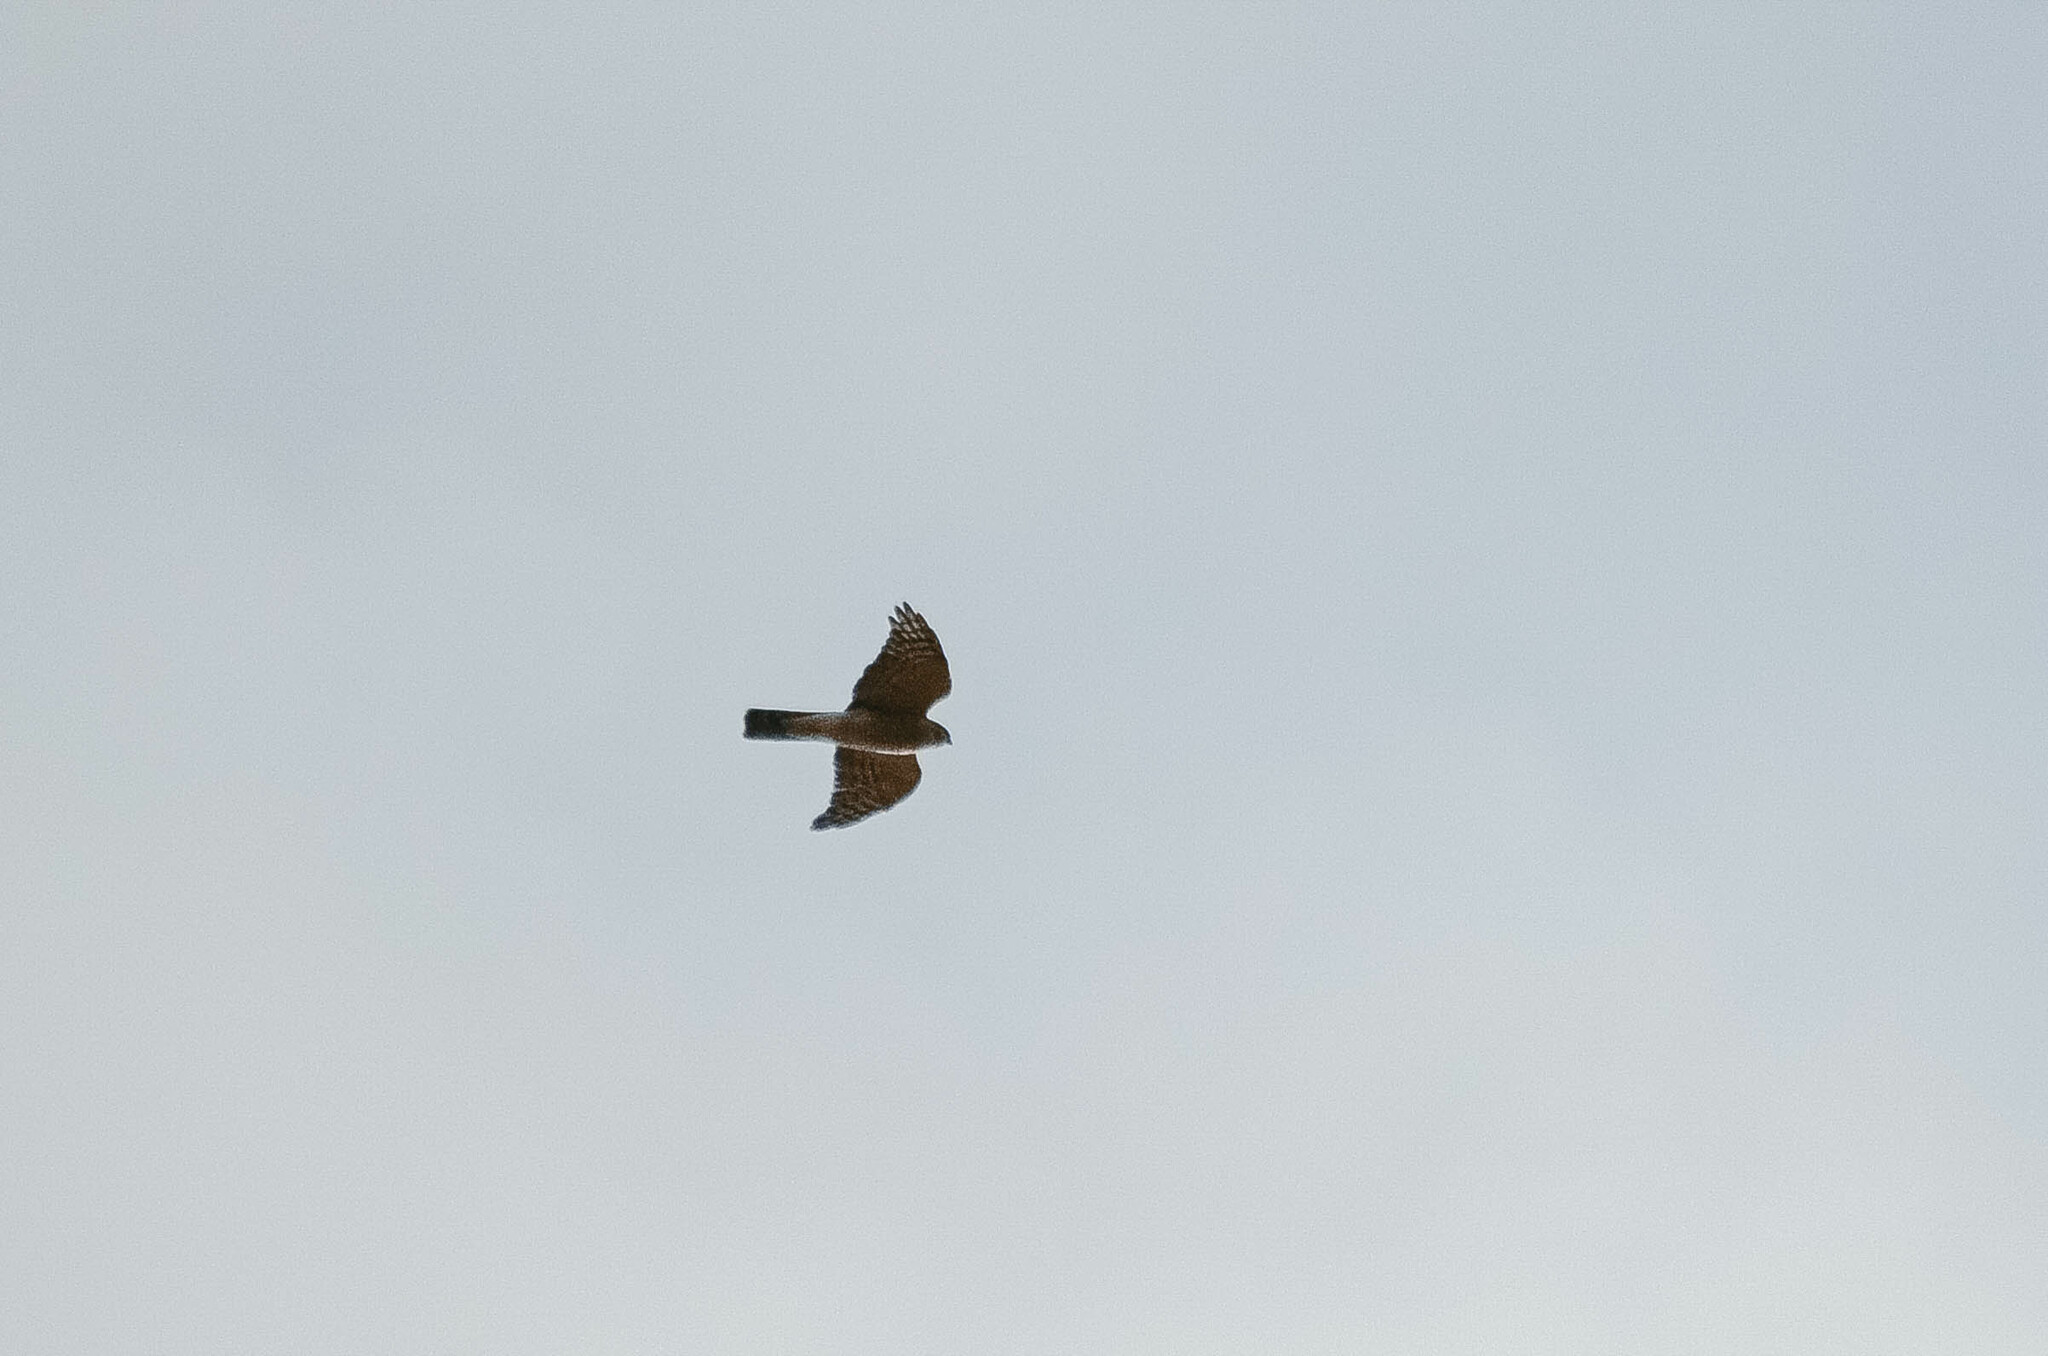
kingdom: Animalia
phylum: Chordata
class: Aves
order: Accipitriformes
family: Accipitridae
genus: Accipiter
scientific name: Accipiter nisus
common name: Eurasian sparrowhawk
